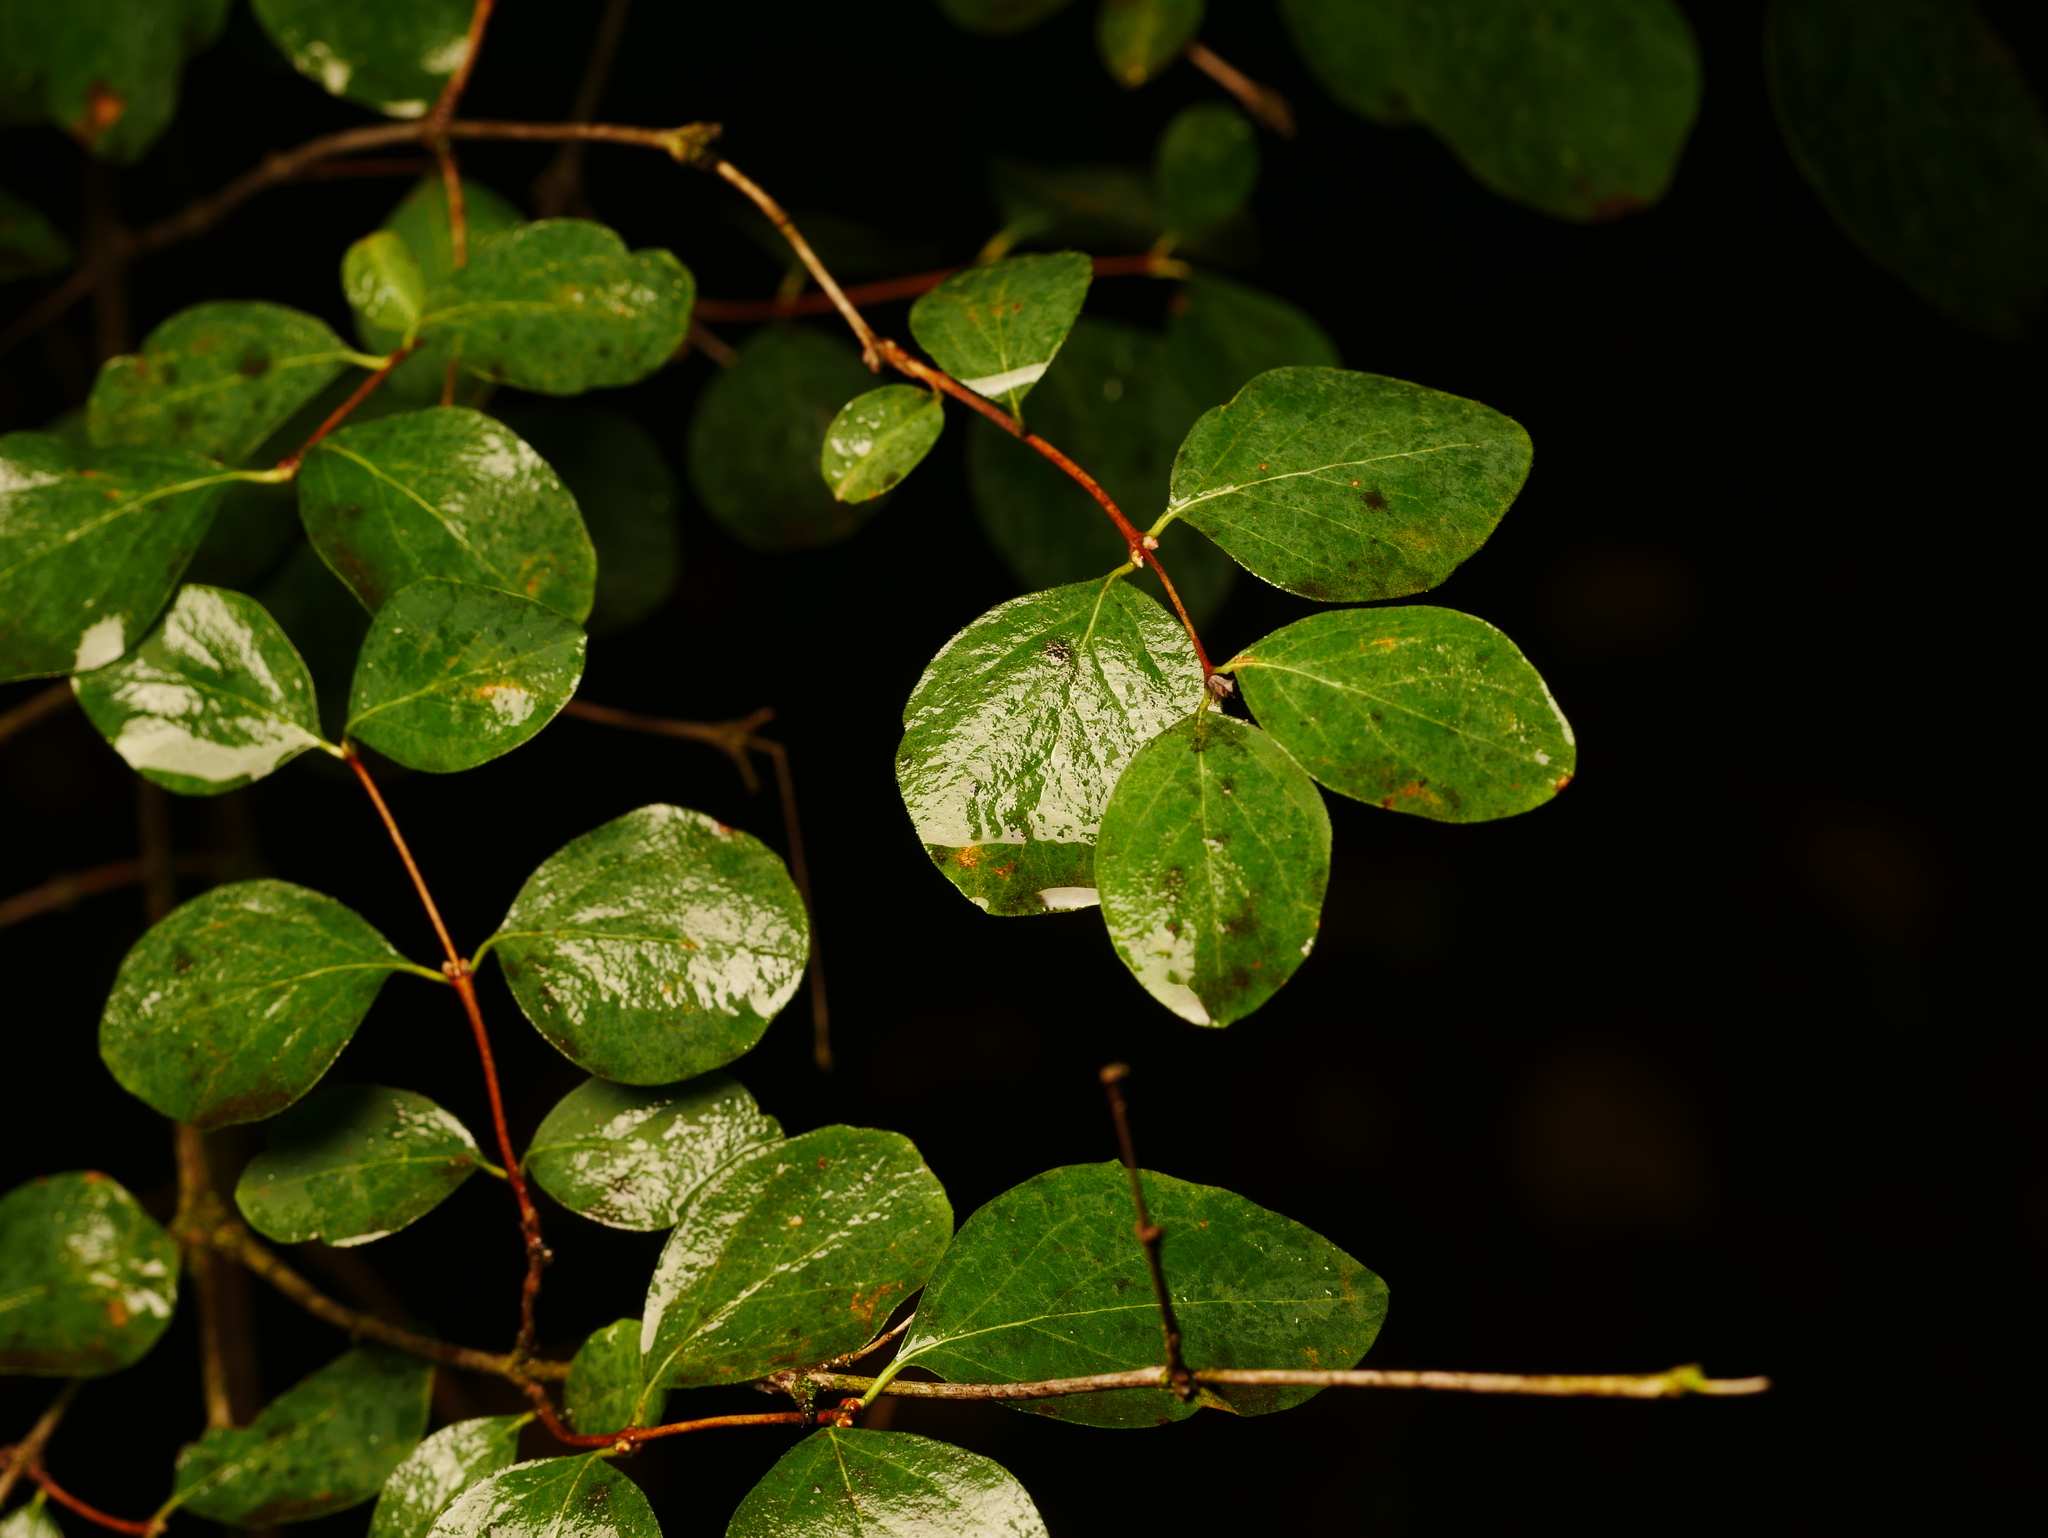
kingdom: Plantae
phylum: Tracheophyta
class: Magnoliopsida
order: Dipsacales
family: Caprifoliaceae
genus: Symphoricarpos
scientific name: Symphoricarpos albus
